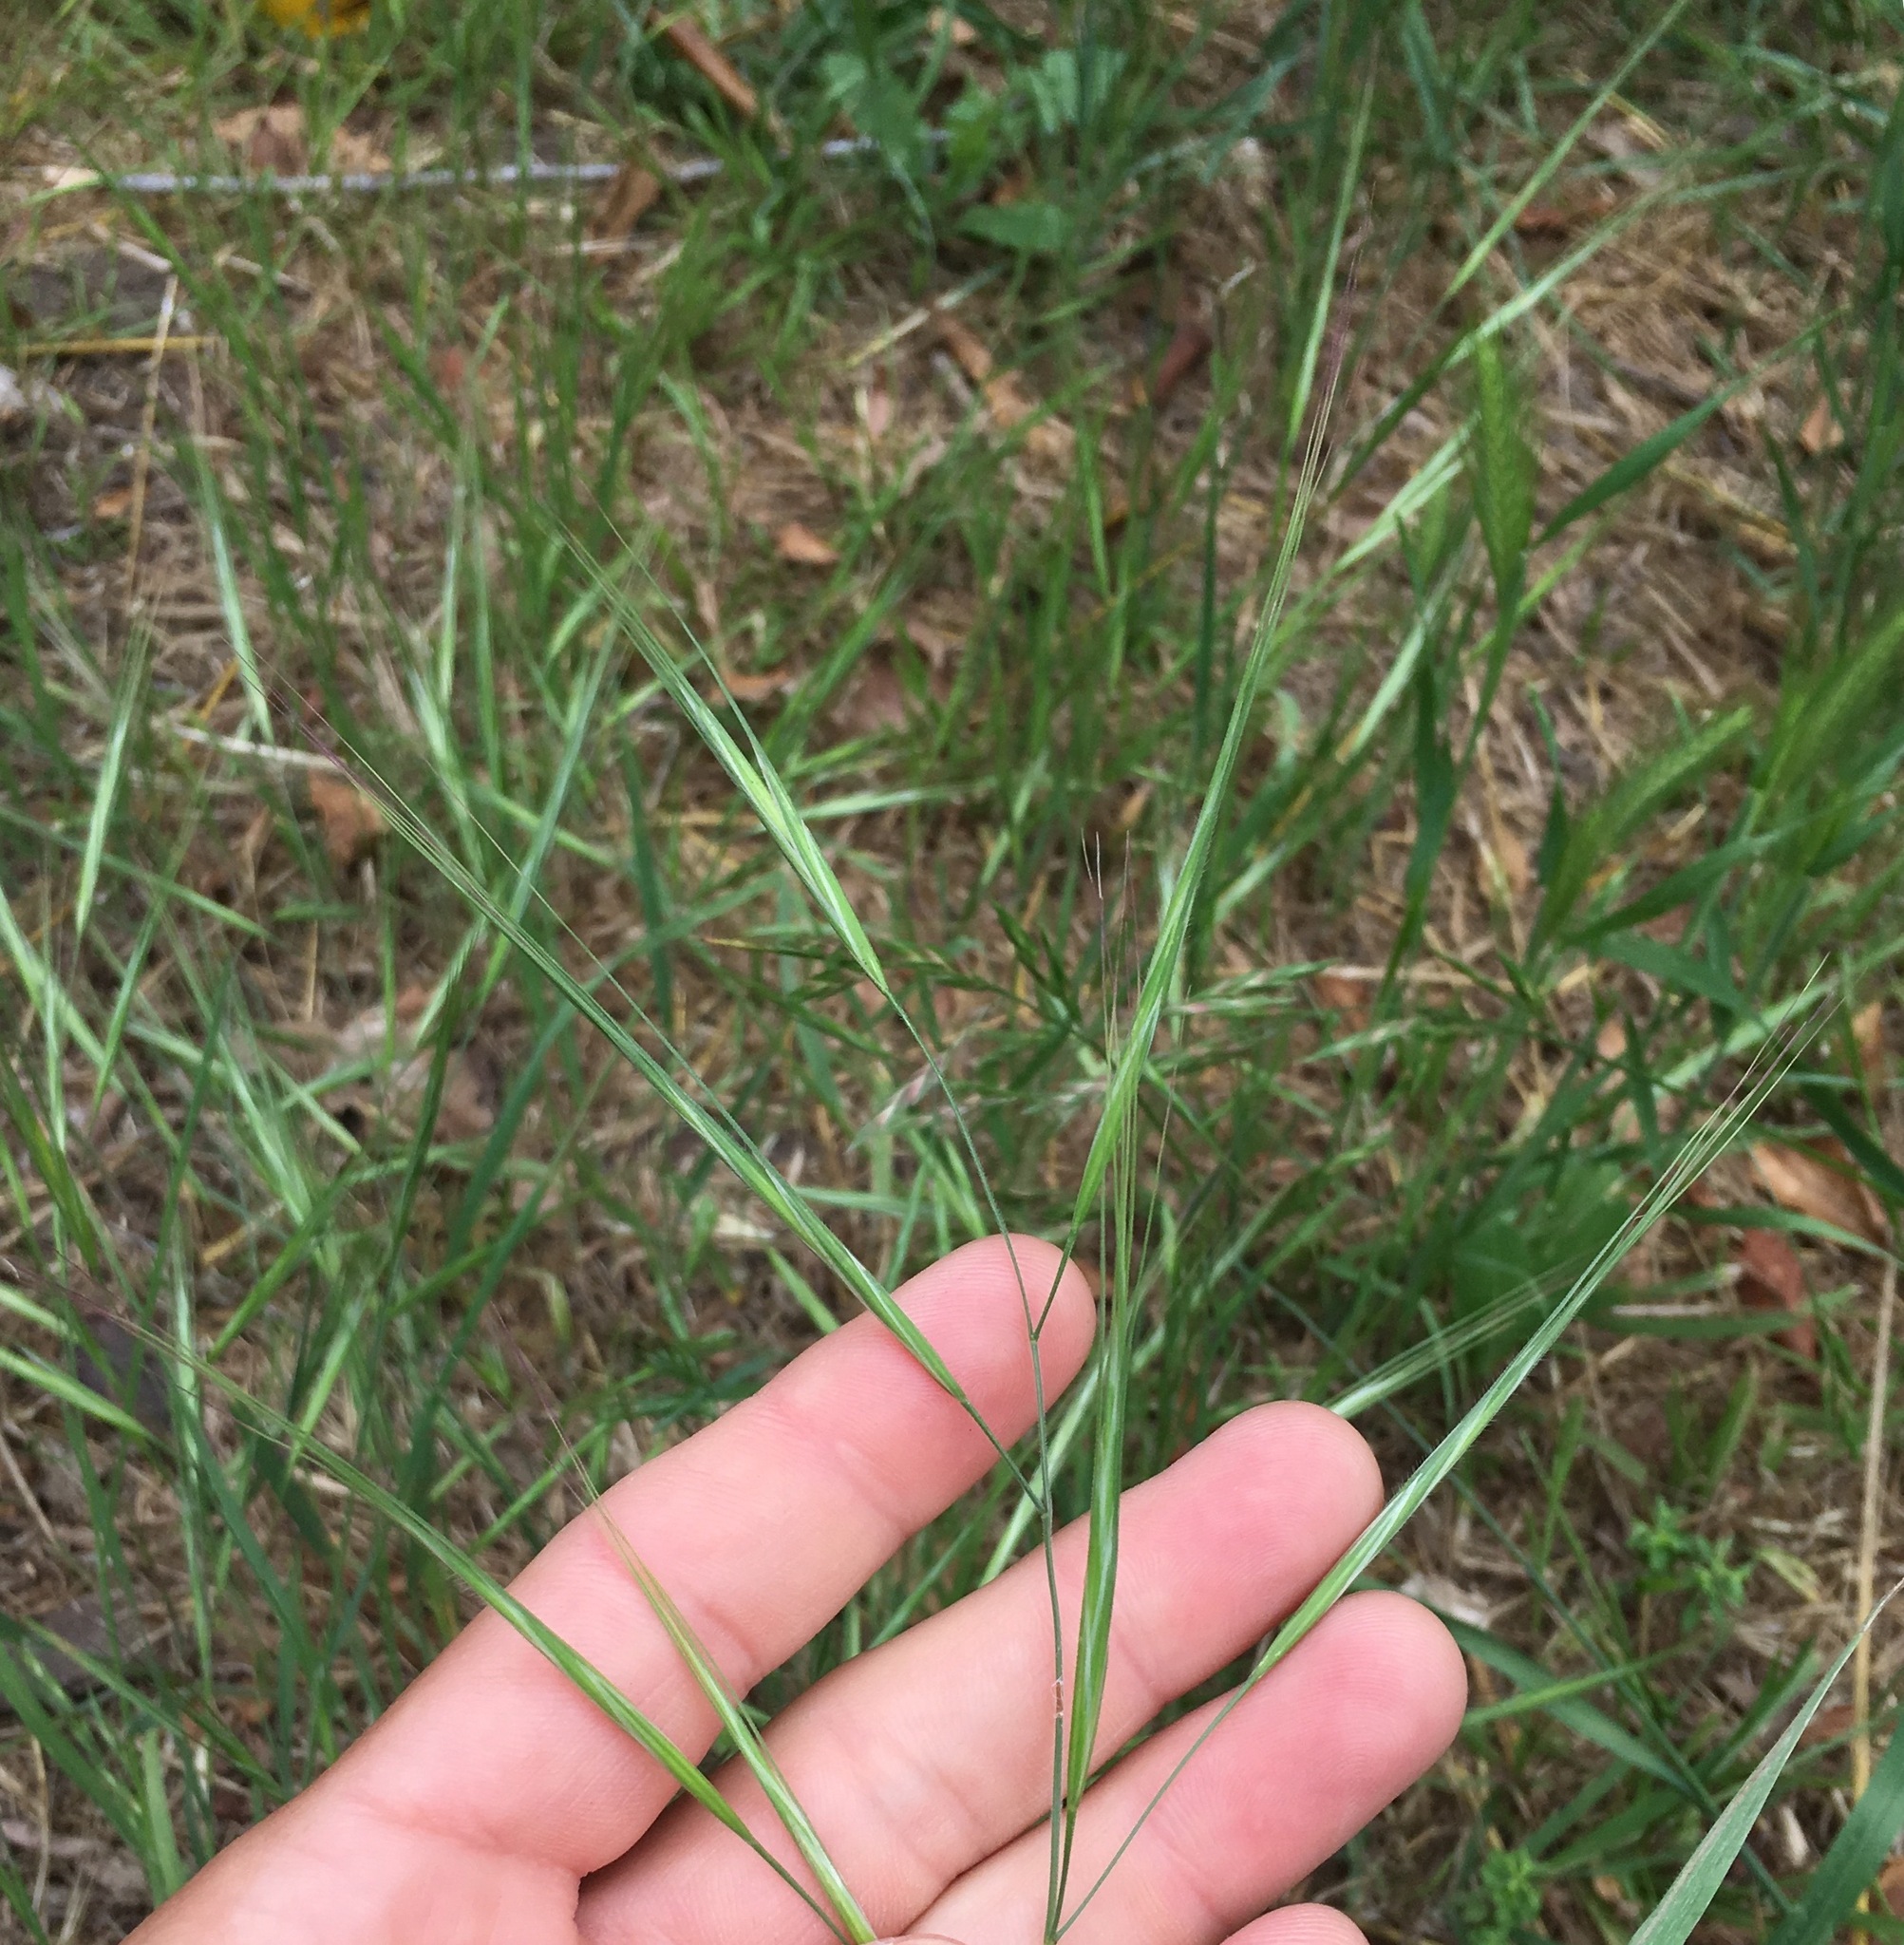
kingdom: Plantae
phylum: Tracheophyta
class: Liliopsida
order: Poales
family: Poaceae
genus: Bromus
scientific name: Bromus diandrus
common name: Ripgut brome
